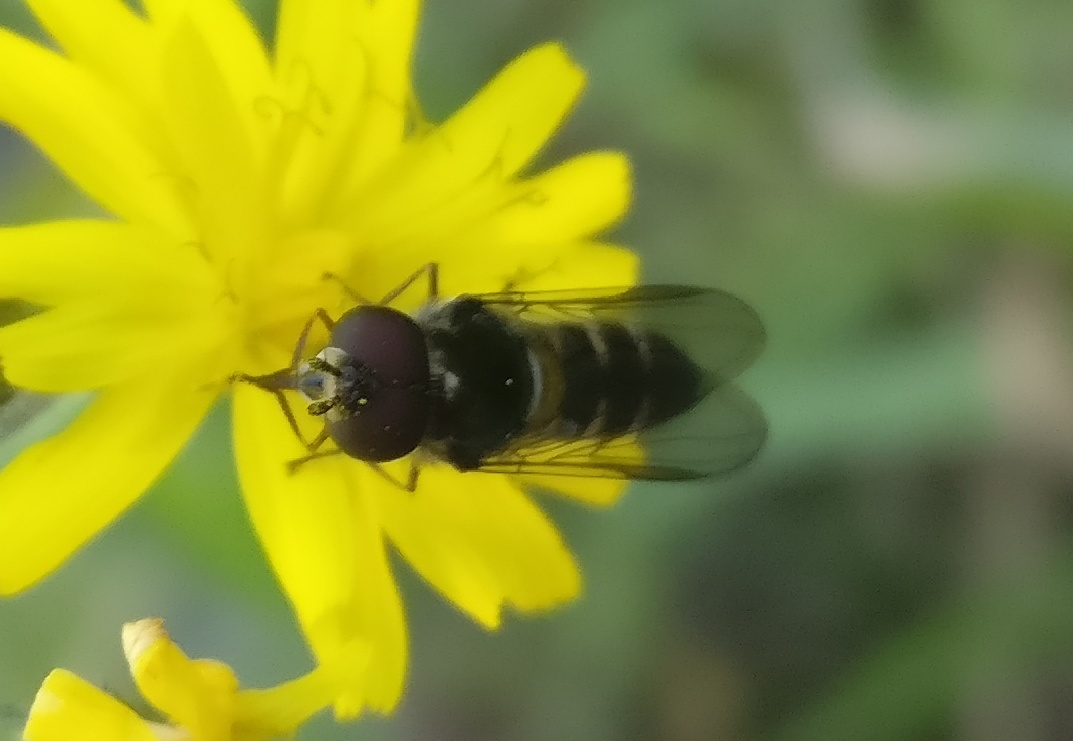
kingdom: Animalia
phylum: Arthropoda
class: Insecta
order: Diptera
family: Syrphidae
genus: Melangyna
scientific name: Melangyna novaezelandiae
